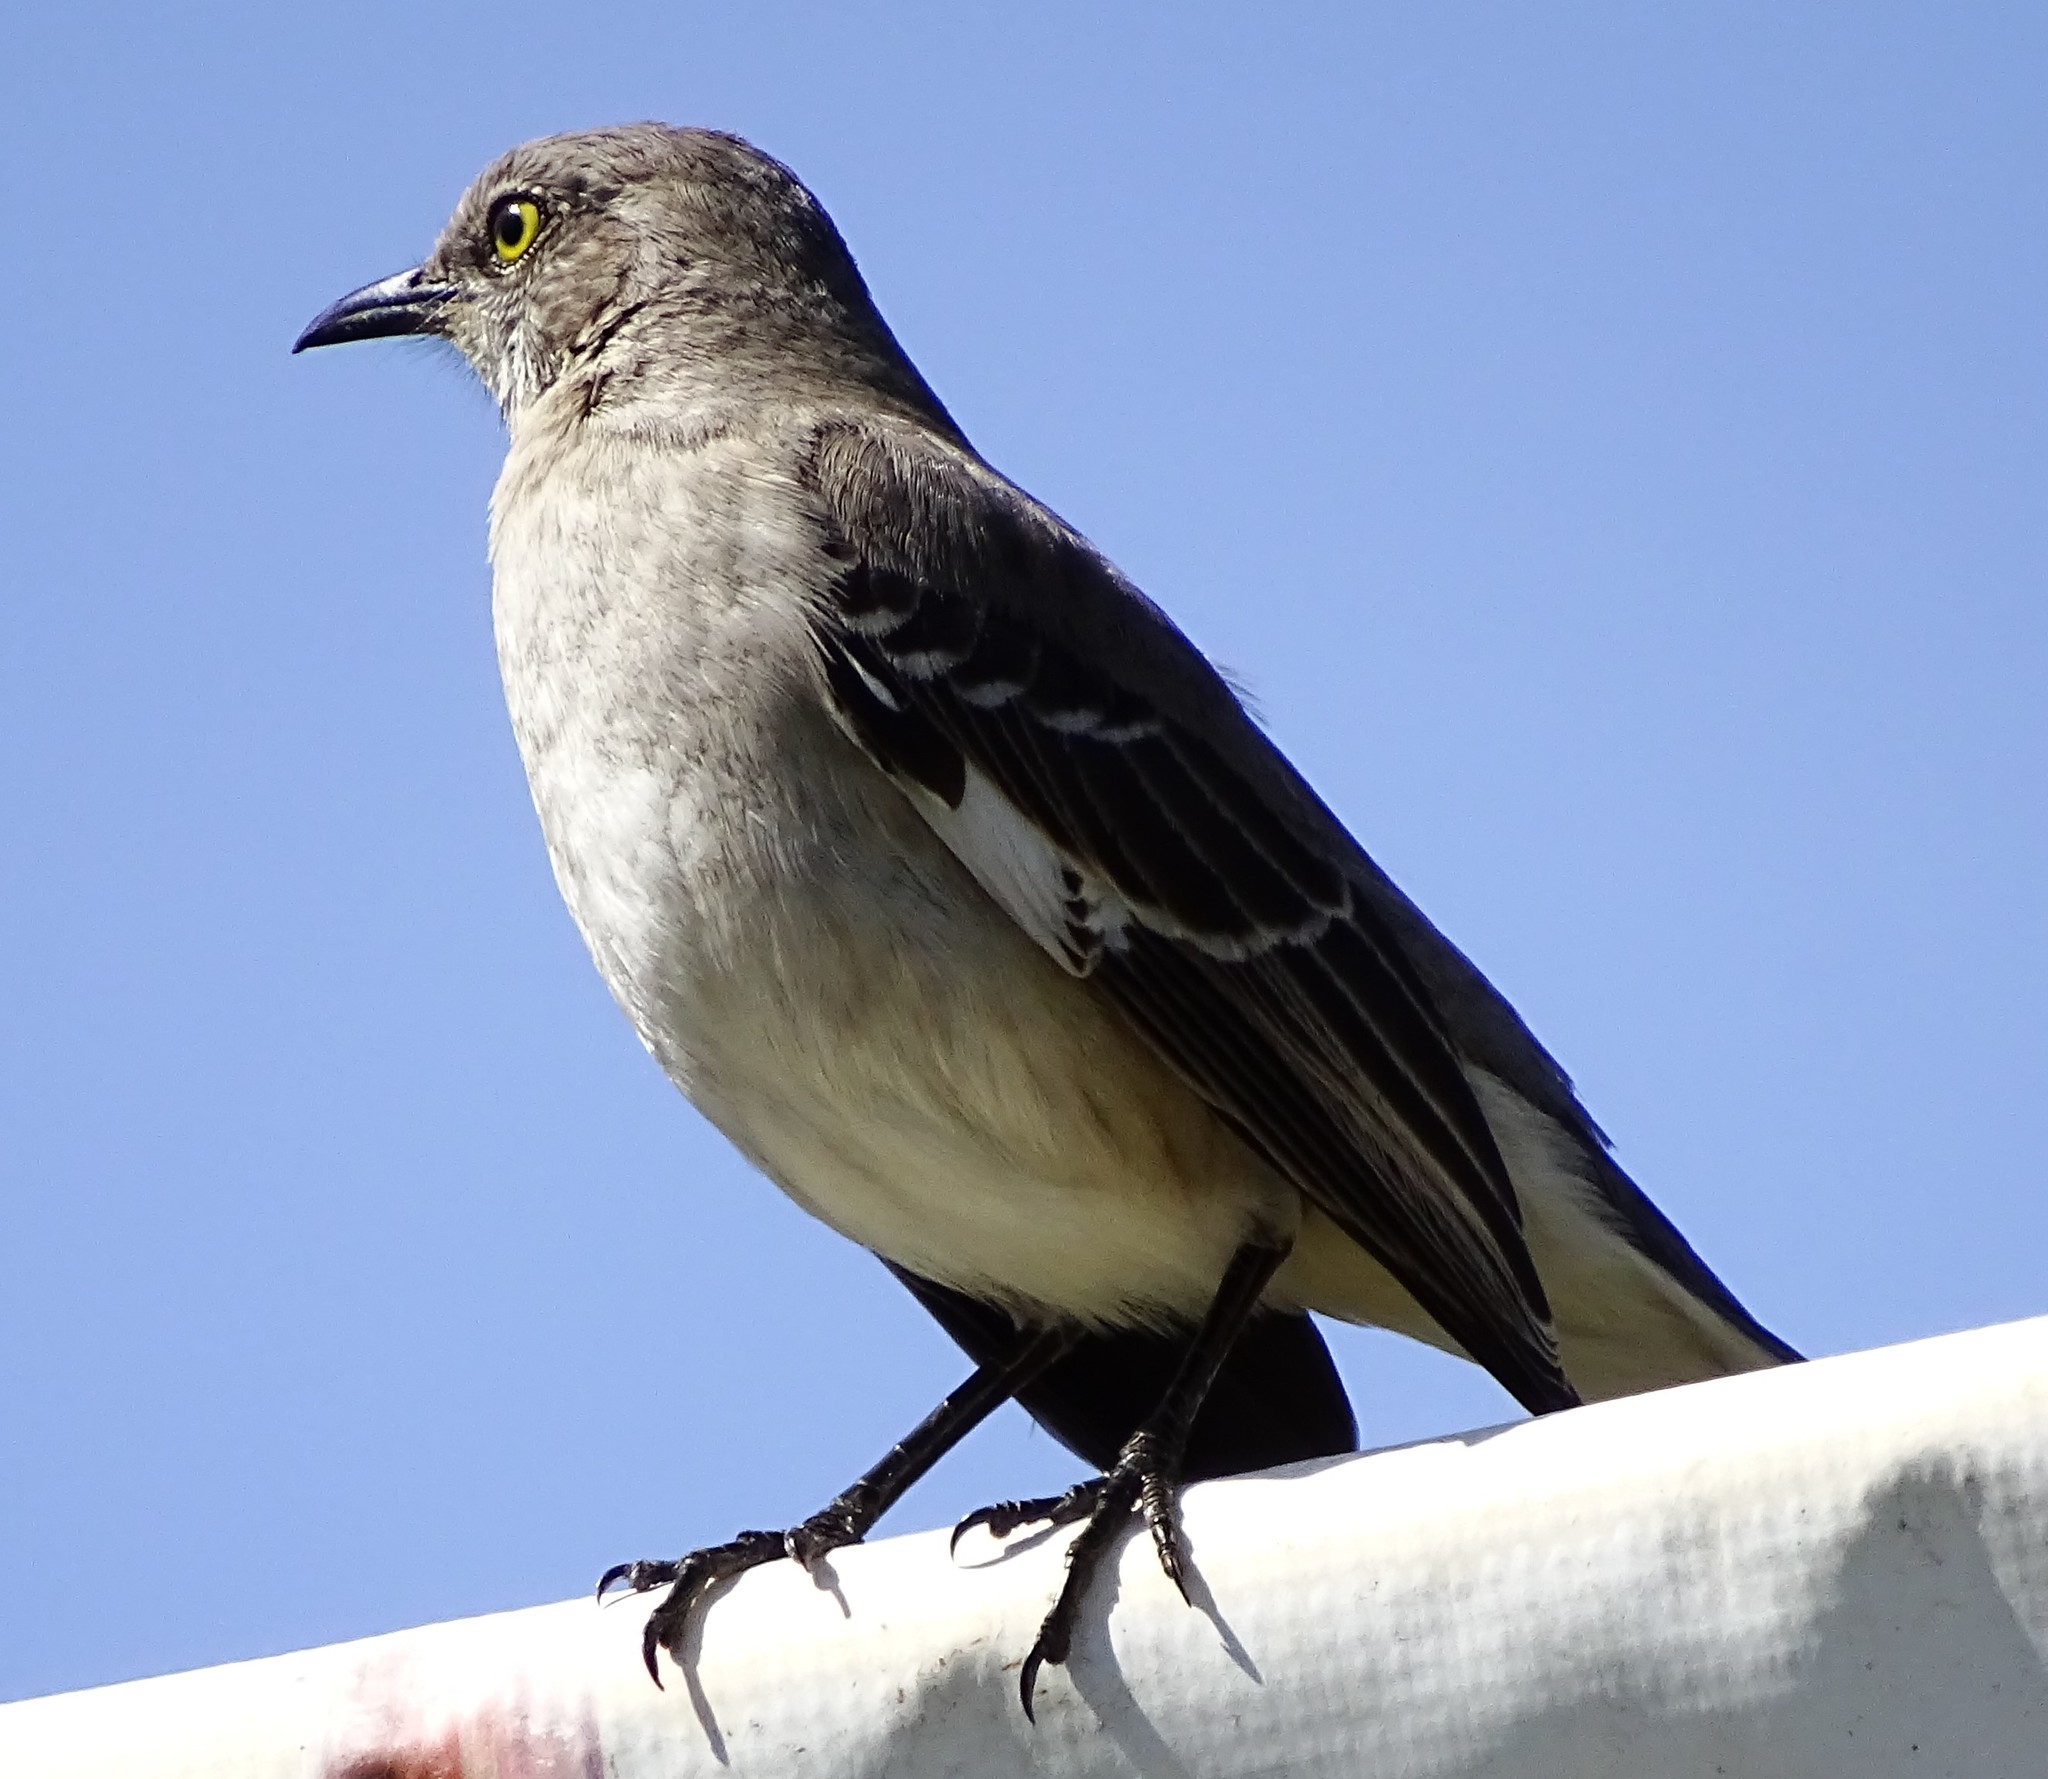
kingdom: Animalia
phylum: Chordata
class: Aves
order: Passeriformes
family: Mimidae
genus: Mimus
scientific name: Mimus polyglottos
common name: Northern mockingbird
